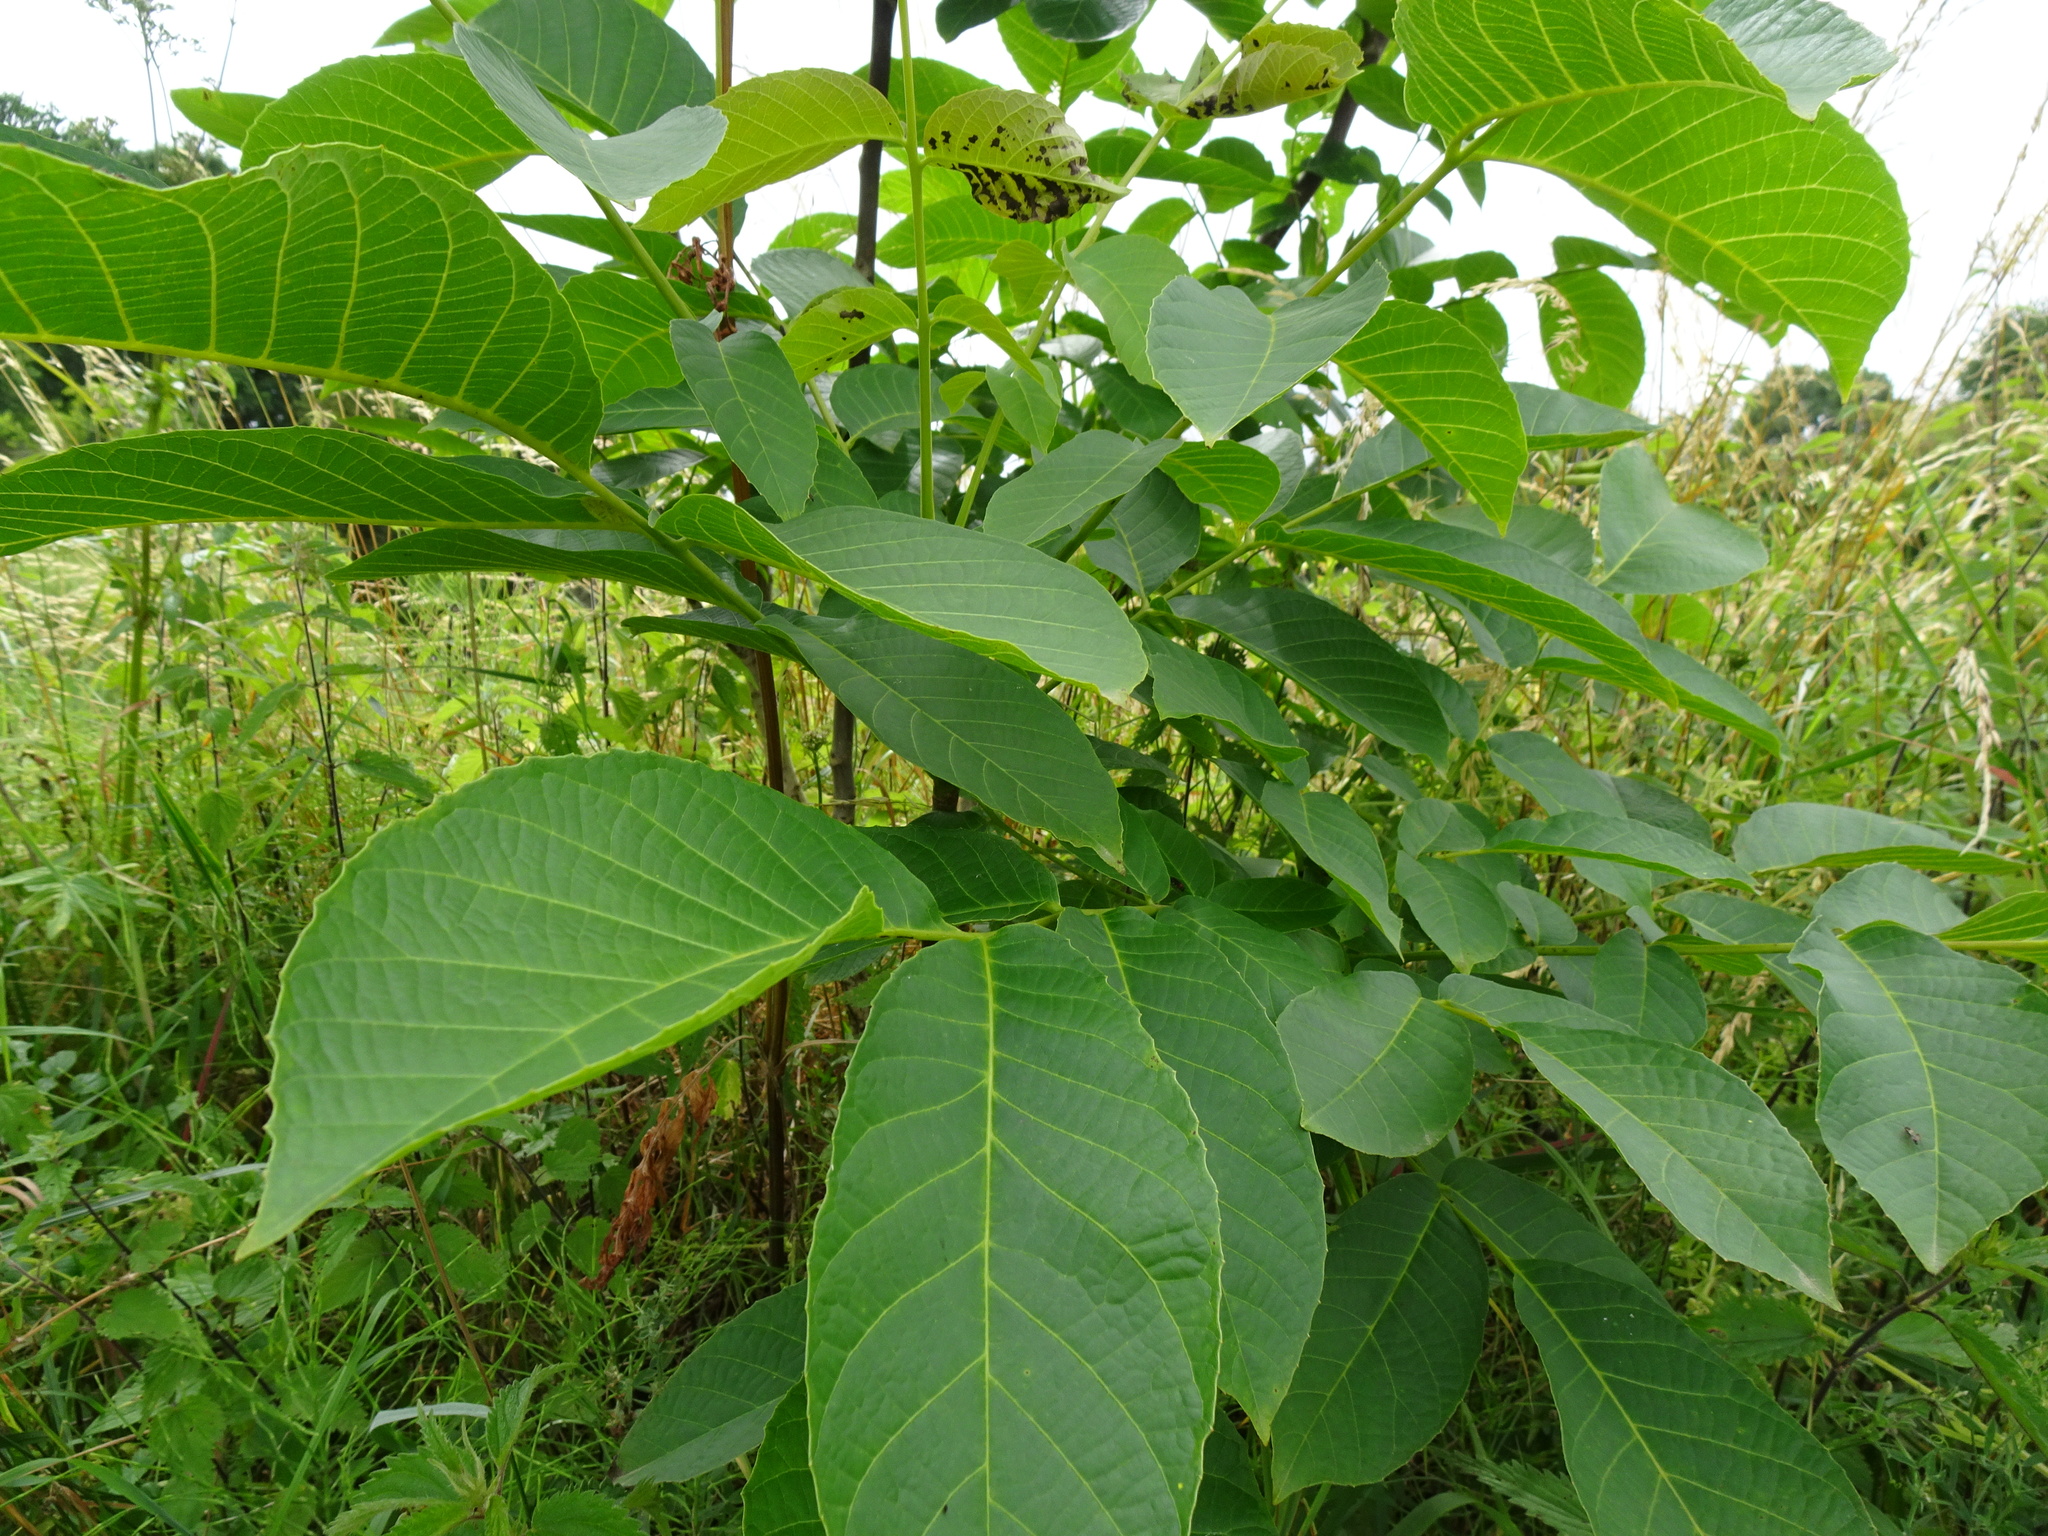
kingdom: Plantae
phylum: Tracheophyta
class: Magnoliopsida
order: Fagales
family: Juglandaceae
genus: Juglans
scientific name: Juglans regia
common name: Walnut
